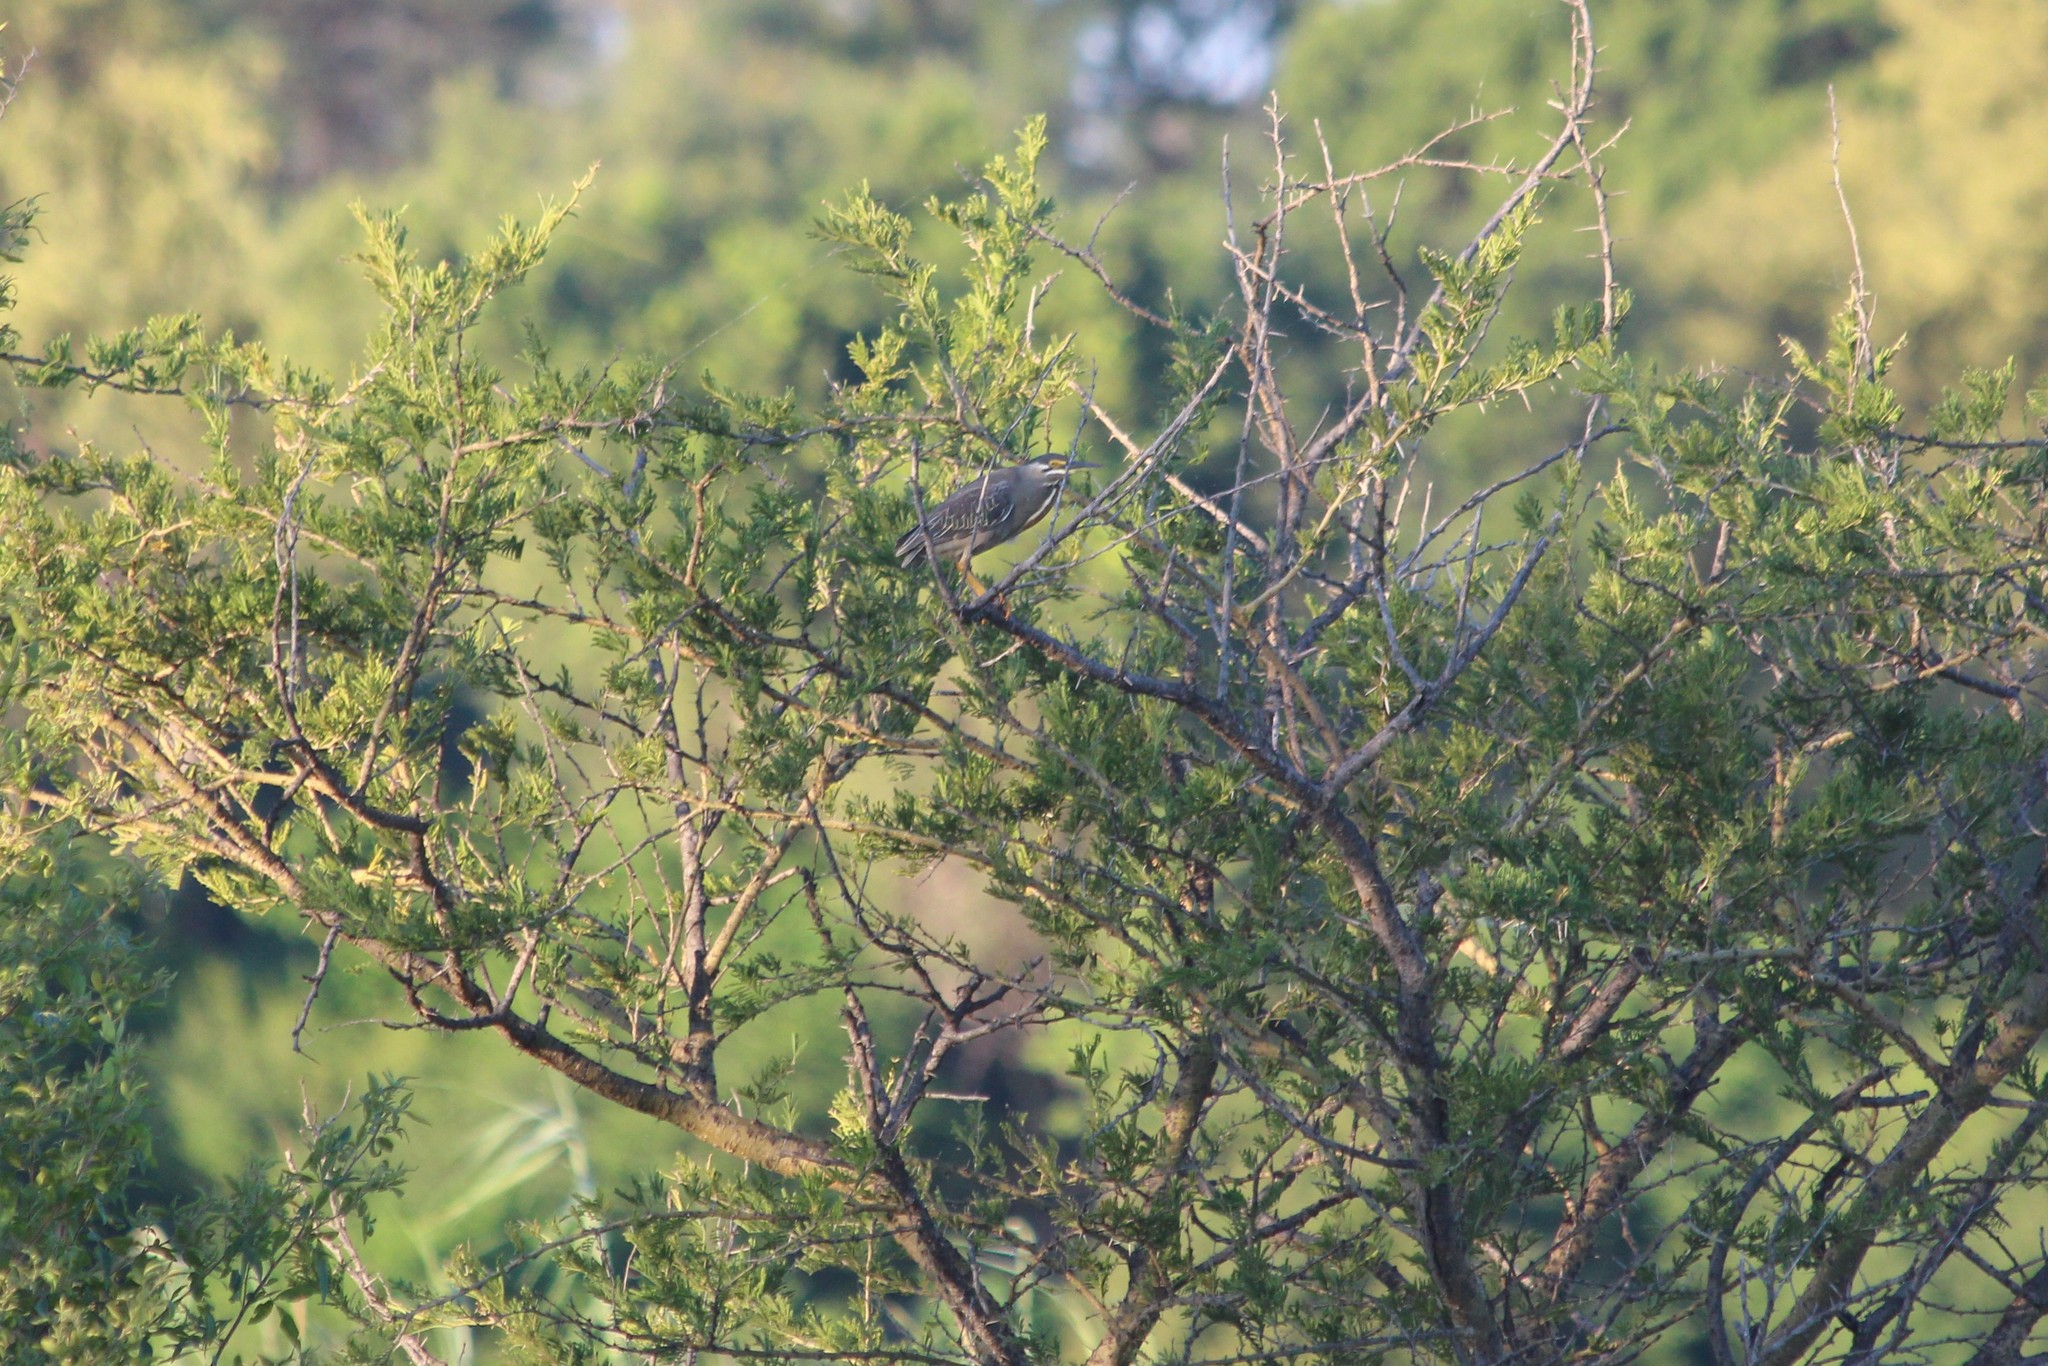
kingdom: Animalia
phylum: Chordata
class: Aves
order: Pelecaniformes
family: Ardeidae
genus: Butorides
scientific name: Butorides striata
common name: Striated heron
